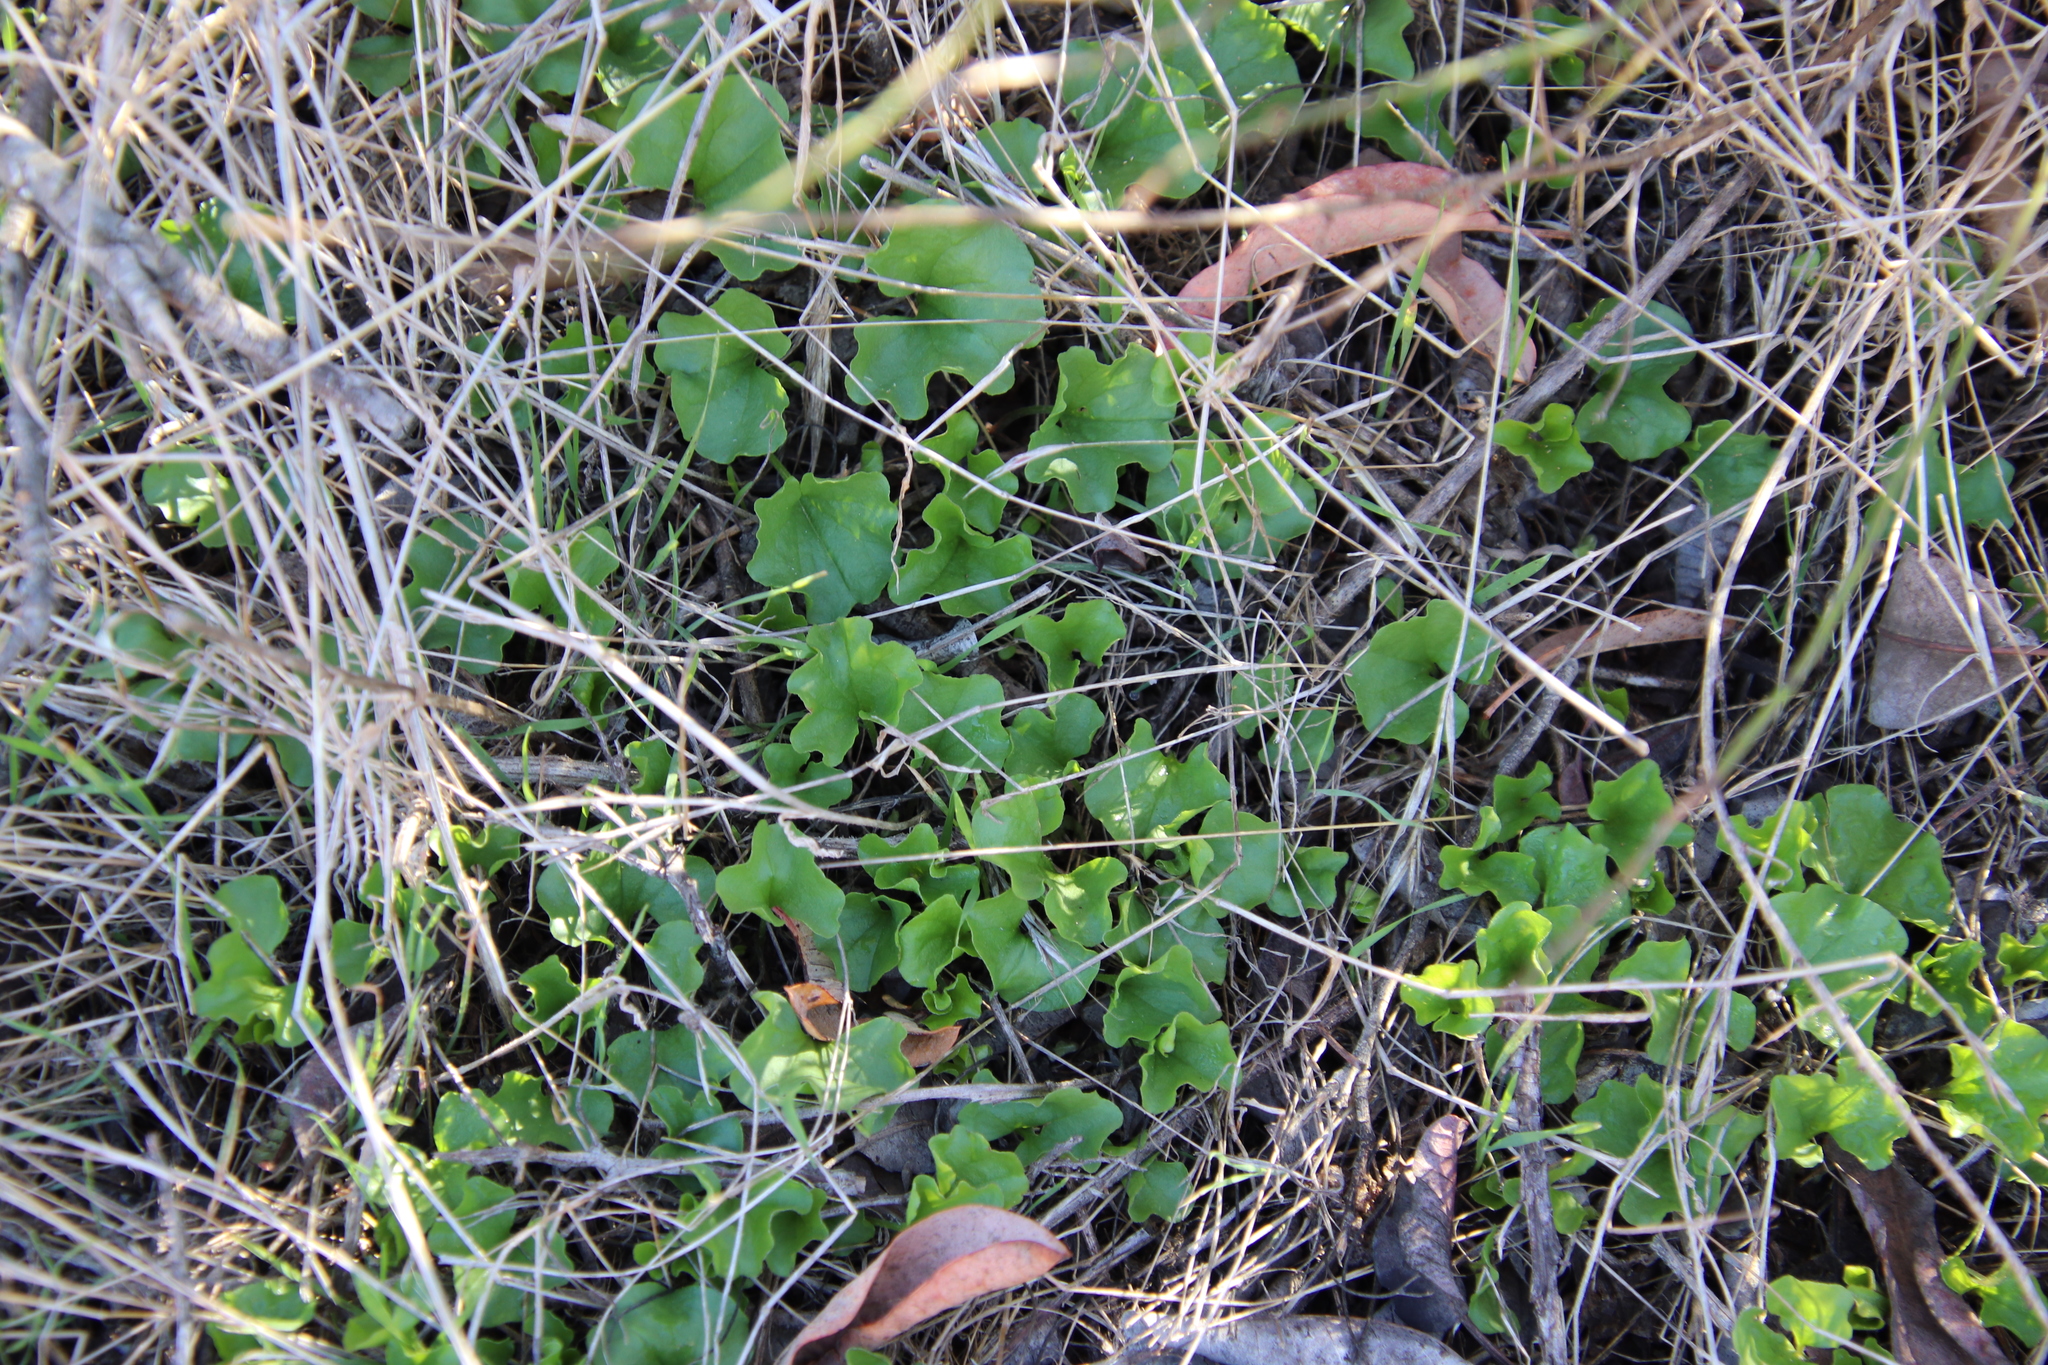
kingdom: Plantae
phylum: Tracheophyta
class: Magnoliopsida
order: Solanales
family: Convolvulaceae
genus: Dichondra
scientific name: Dichondra occidentalis
